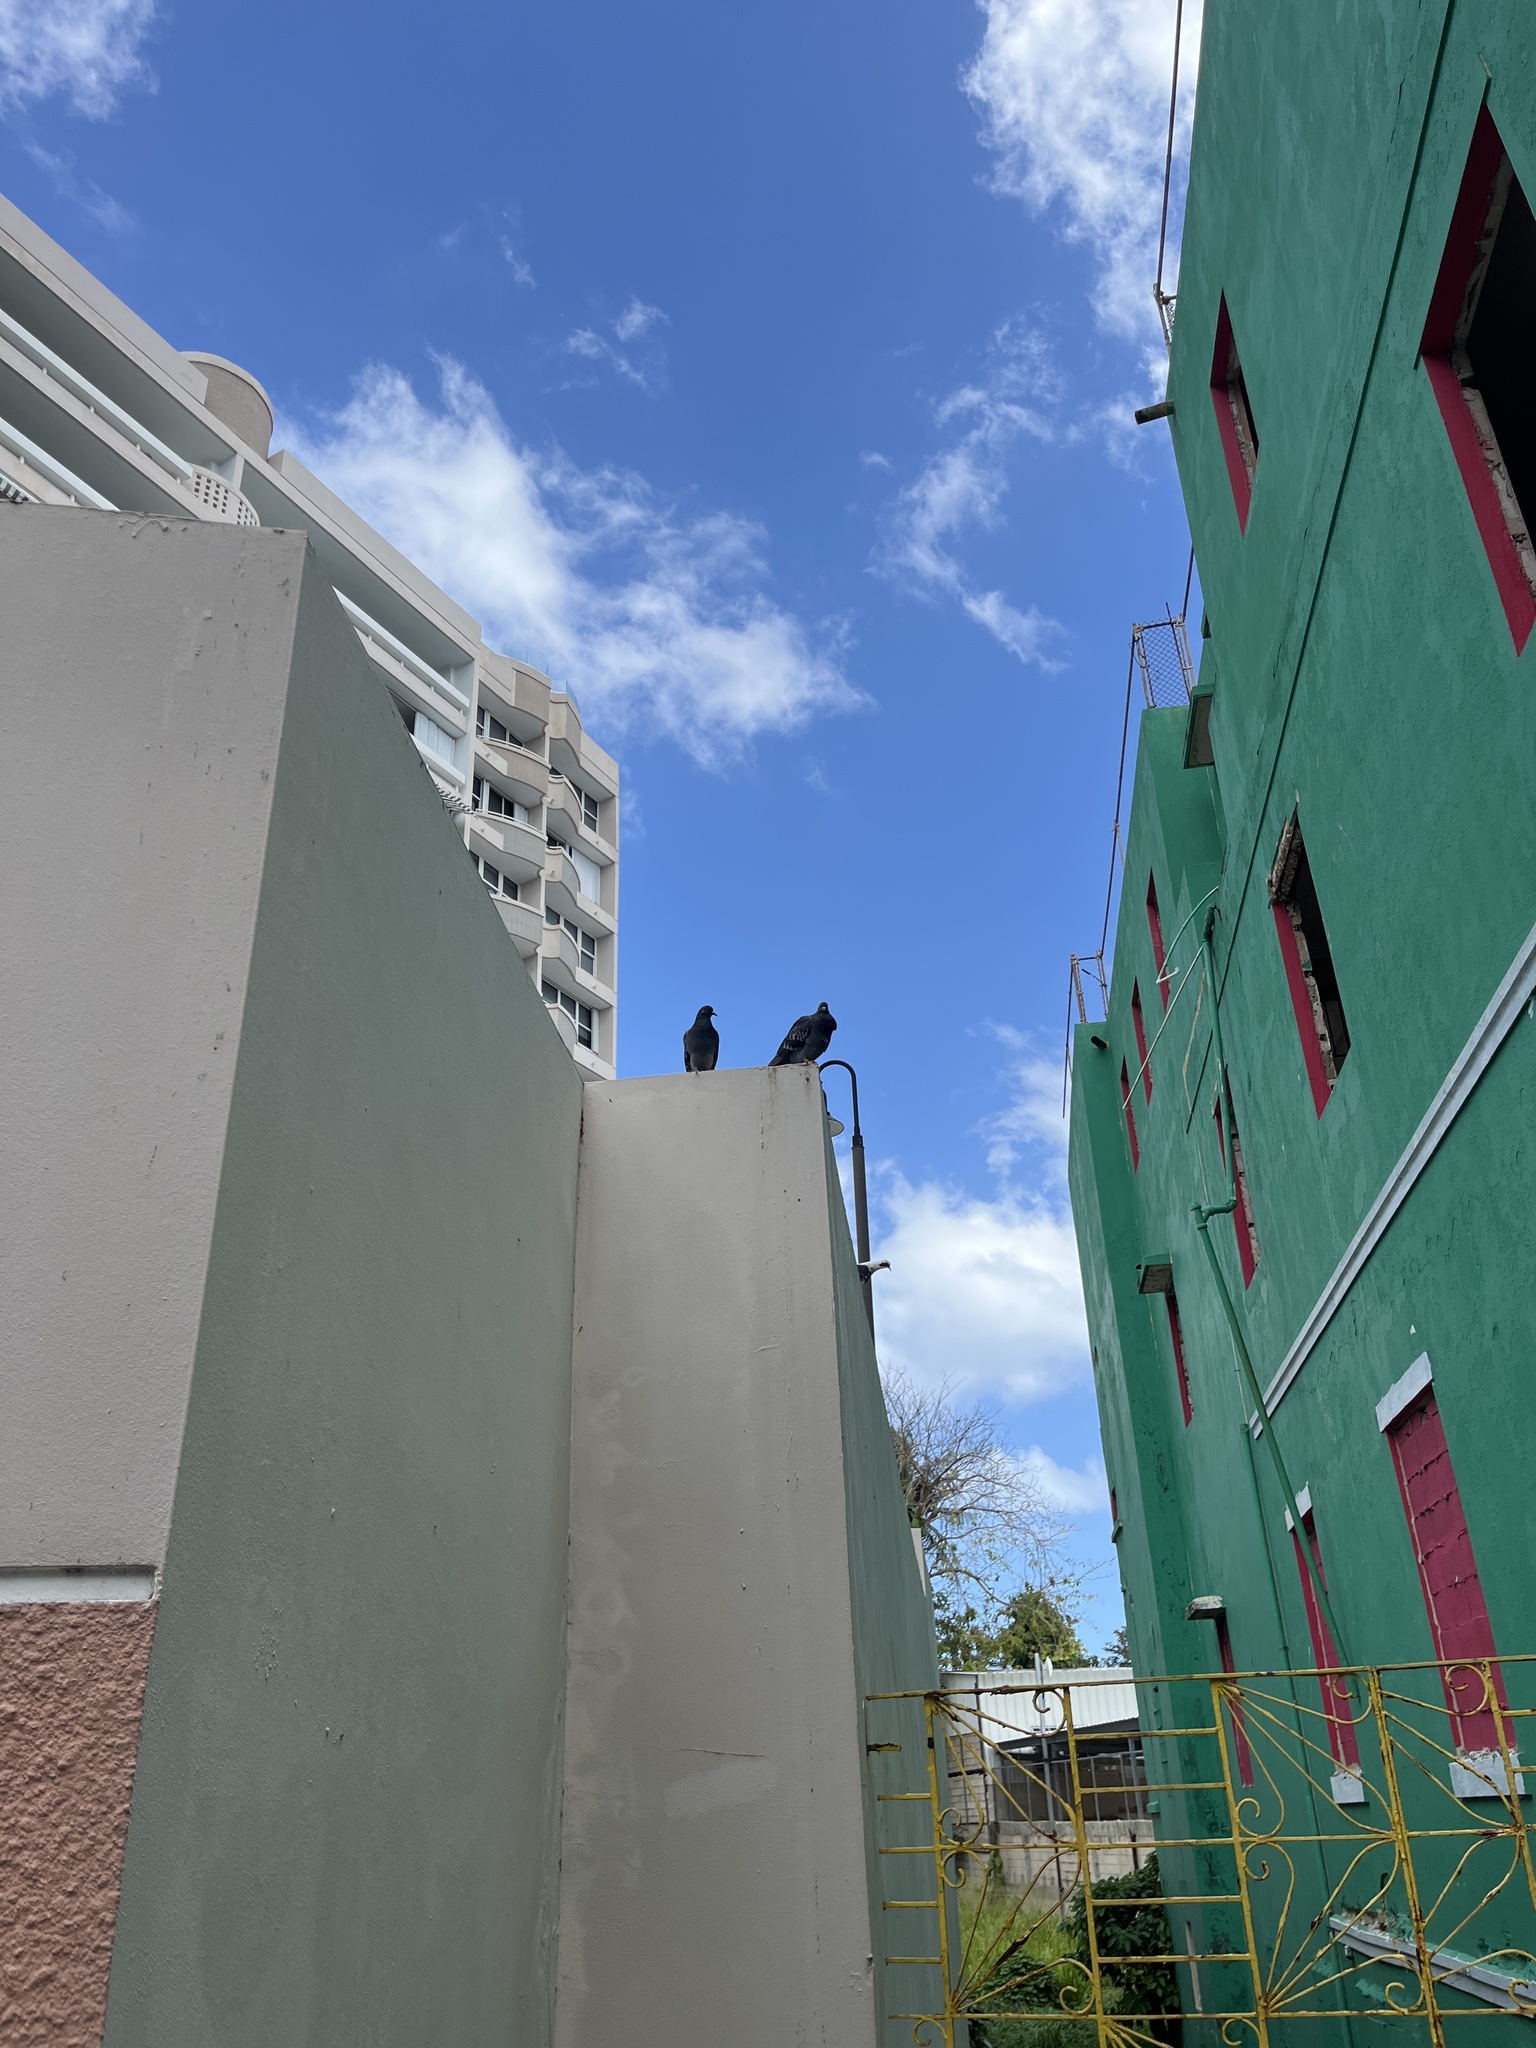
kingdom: Animalia
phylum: Chordata
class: Aves
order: Columbiformes
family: Columbidae
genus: Columba
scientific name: Columba livia
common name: Rock pigeon
